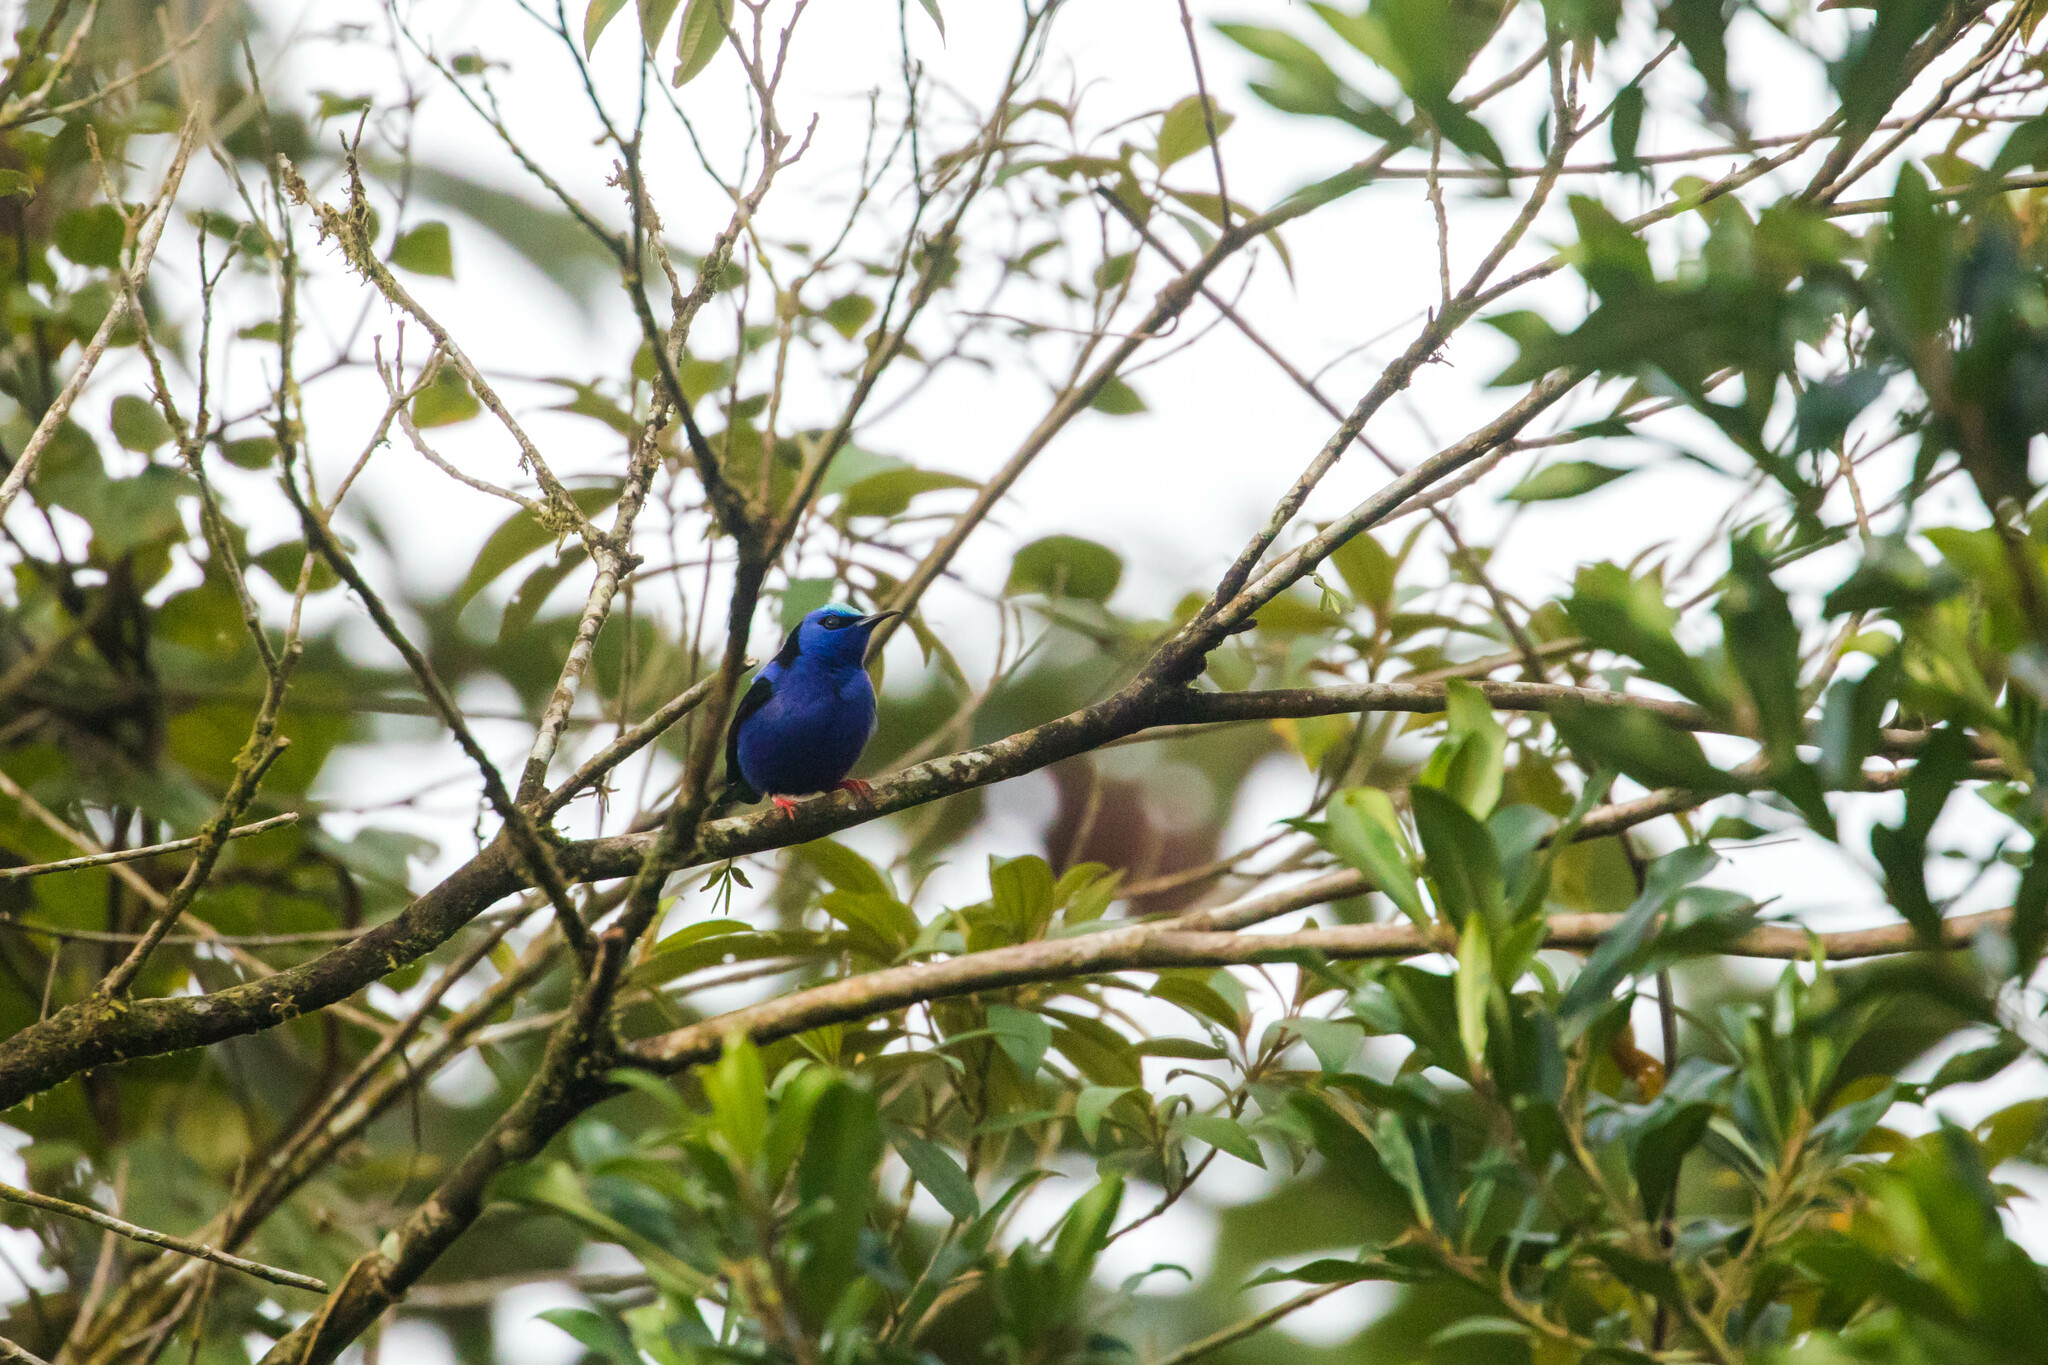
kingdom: Animalia
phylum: Chordata
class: Aves
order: Passeriformes
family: Thraupidae
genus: Cyanerpes
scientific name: Cyanerpes cyaneus
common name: Red-legged honeycreeper
